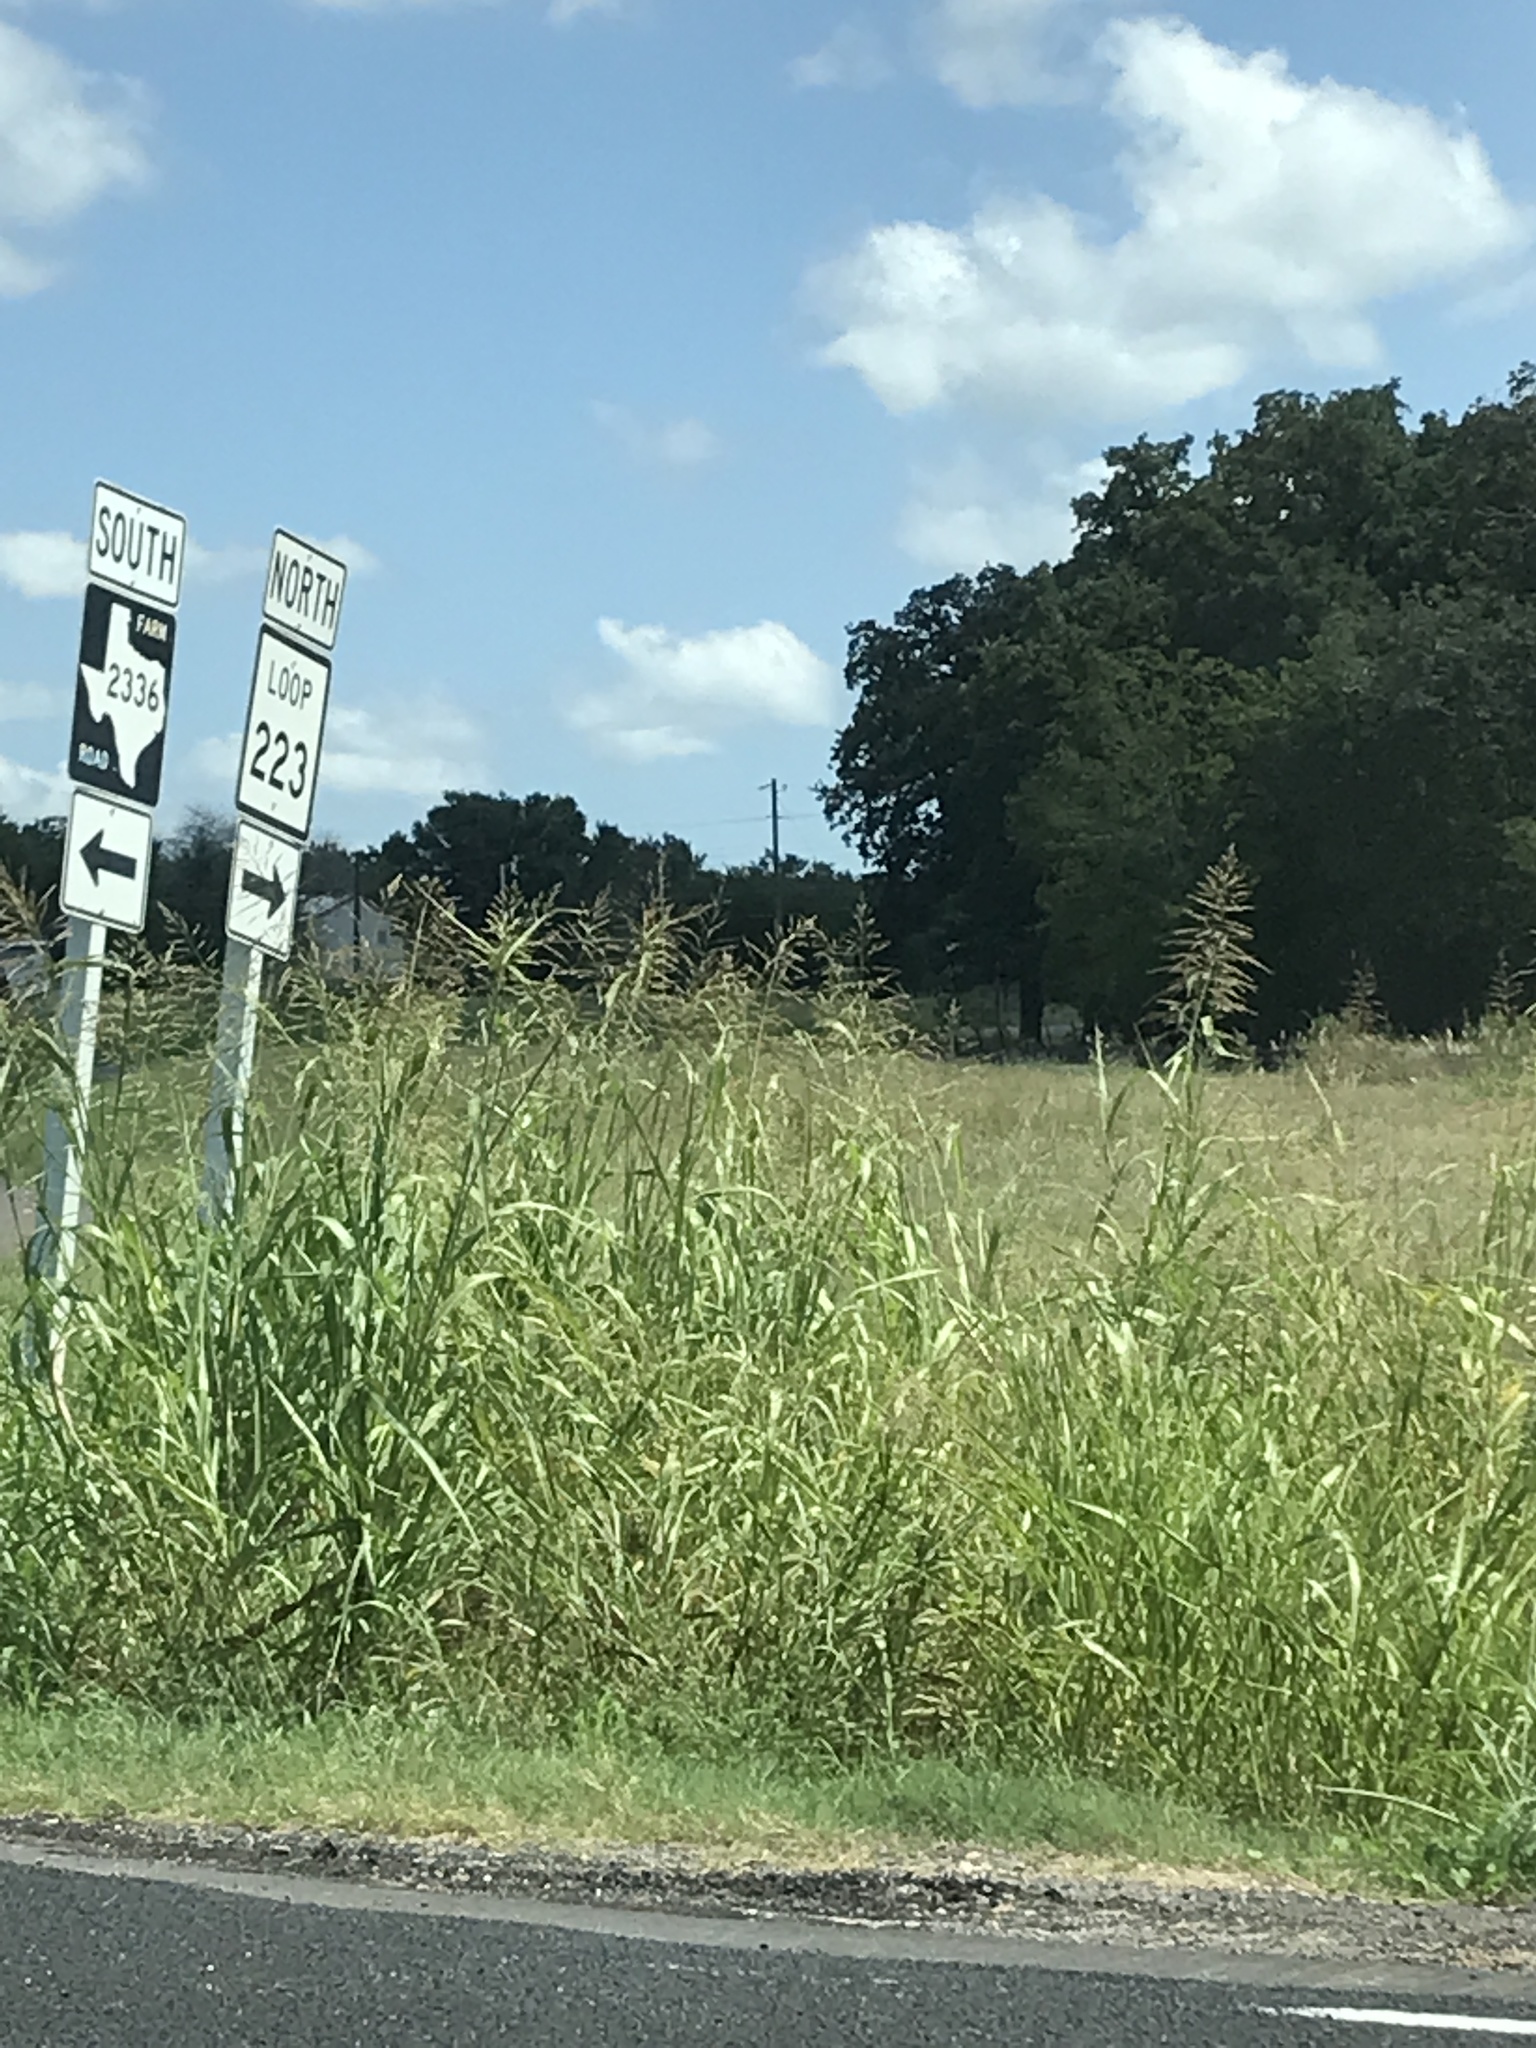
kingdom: Plantae
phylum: Tracheophyta
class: Liliopsida
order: Poales
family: Poaceae
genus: Sorghum
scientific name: Sorghum halepense
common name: Johnson-grass
